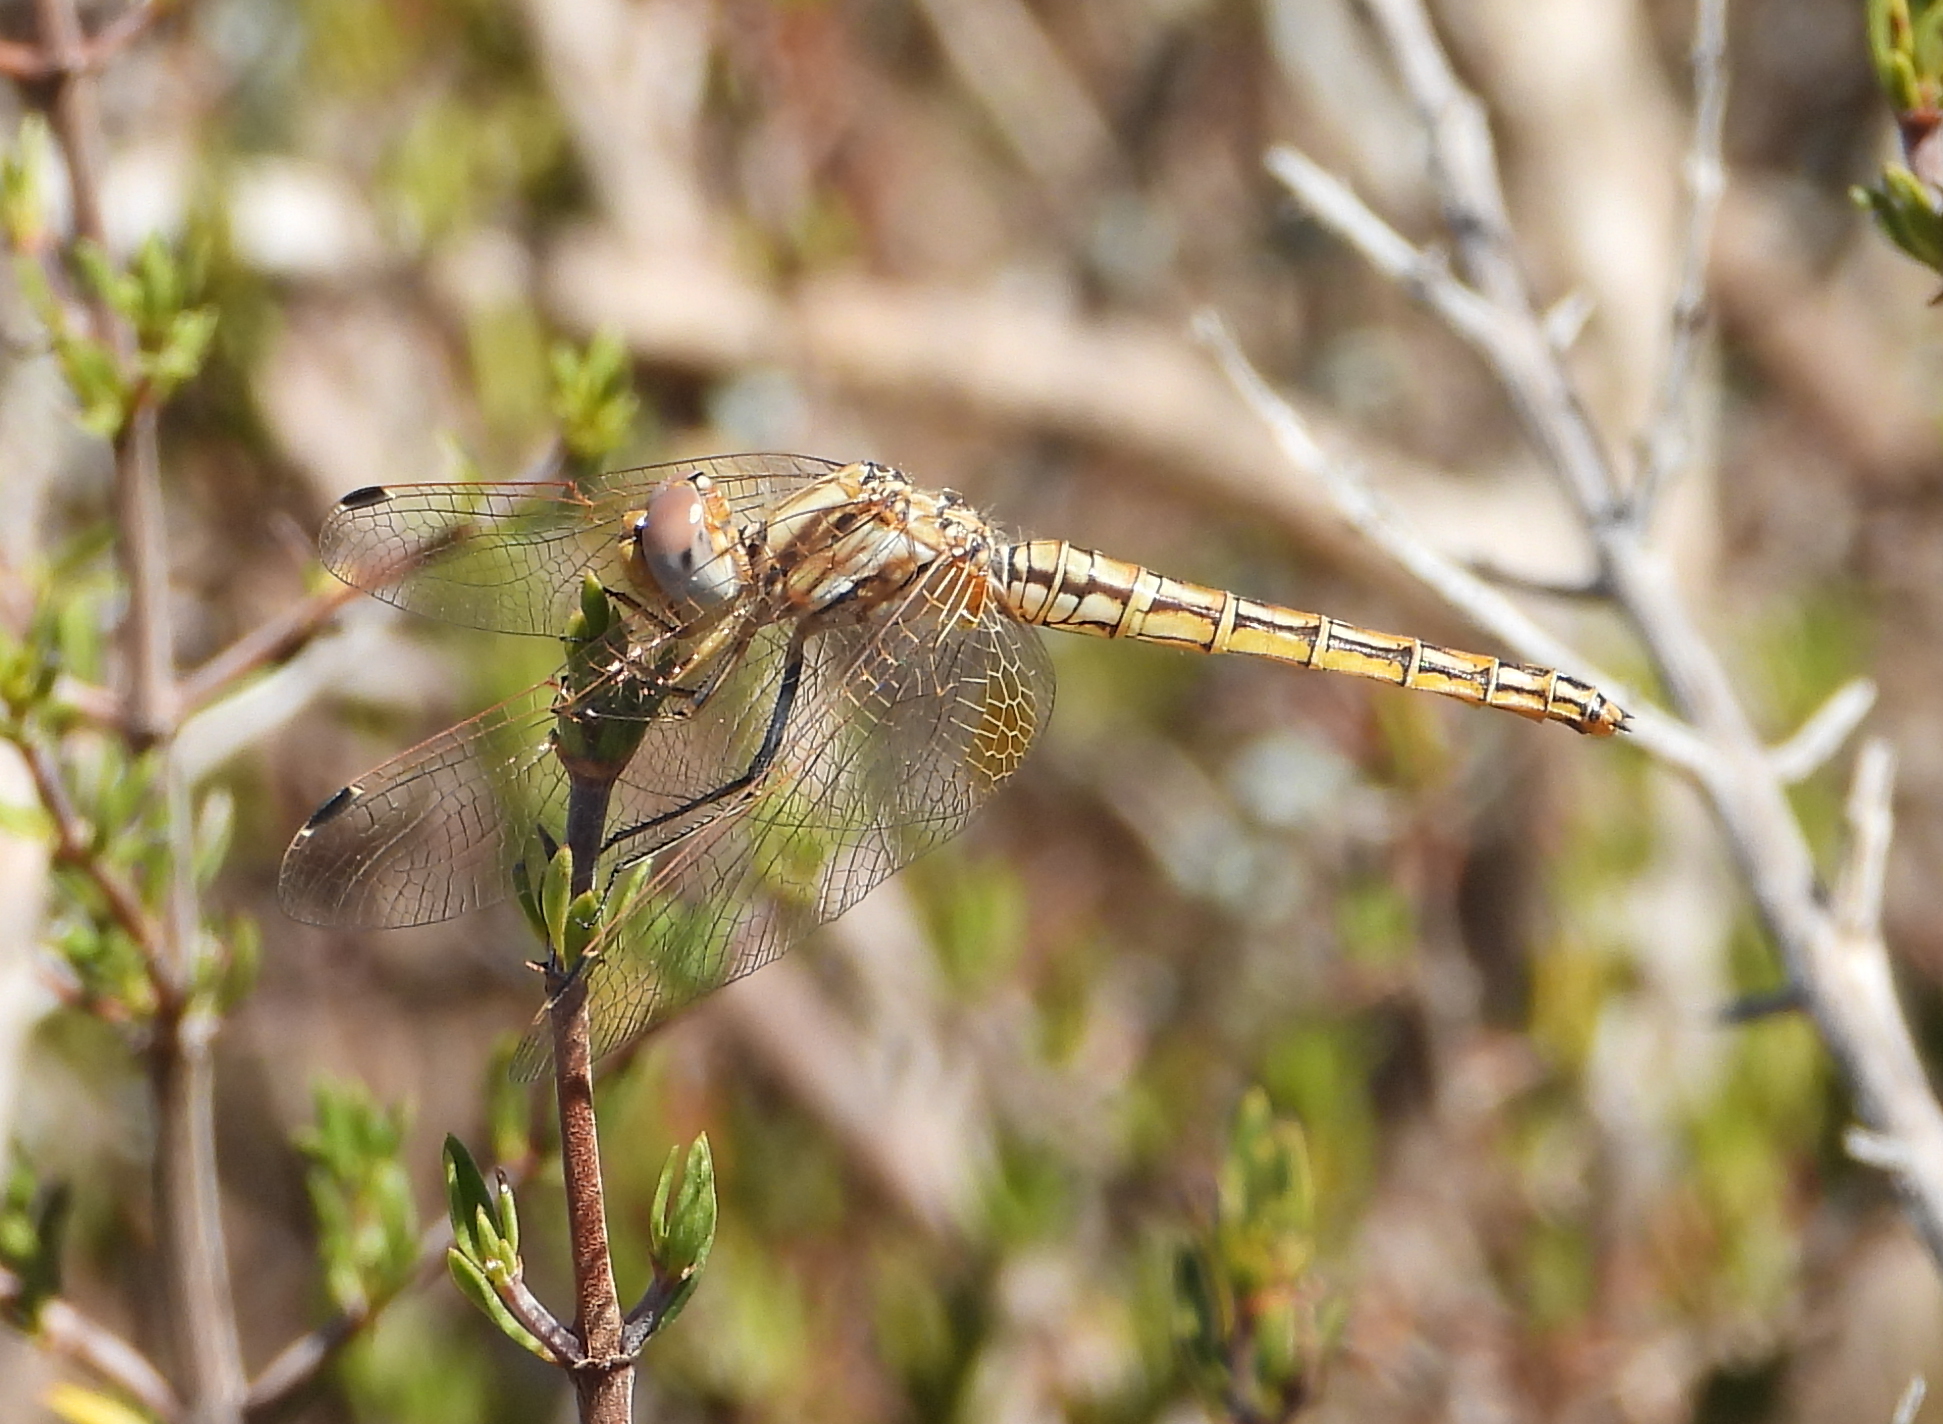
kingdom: Animalia
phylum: Arthropoda
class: Insecta
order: Odonata
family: Libellulidae
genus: Trithemis
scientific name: Trithemis kirbyi
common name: Kirby's dropwing
